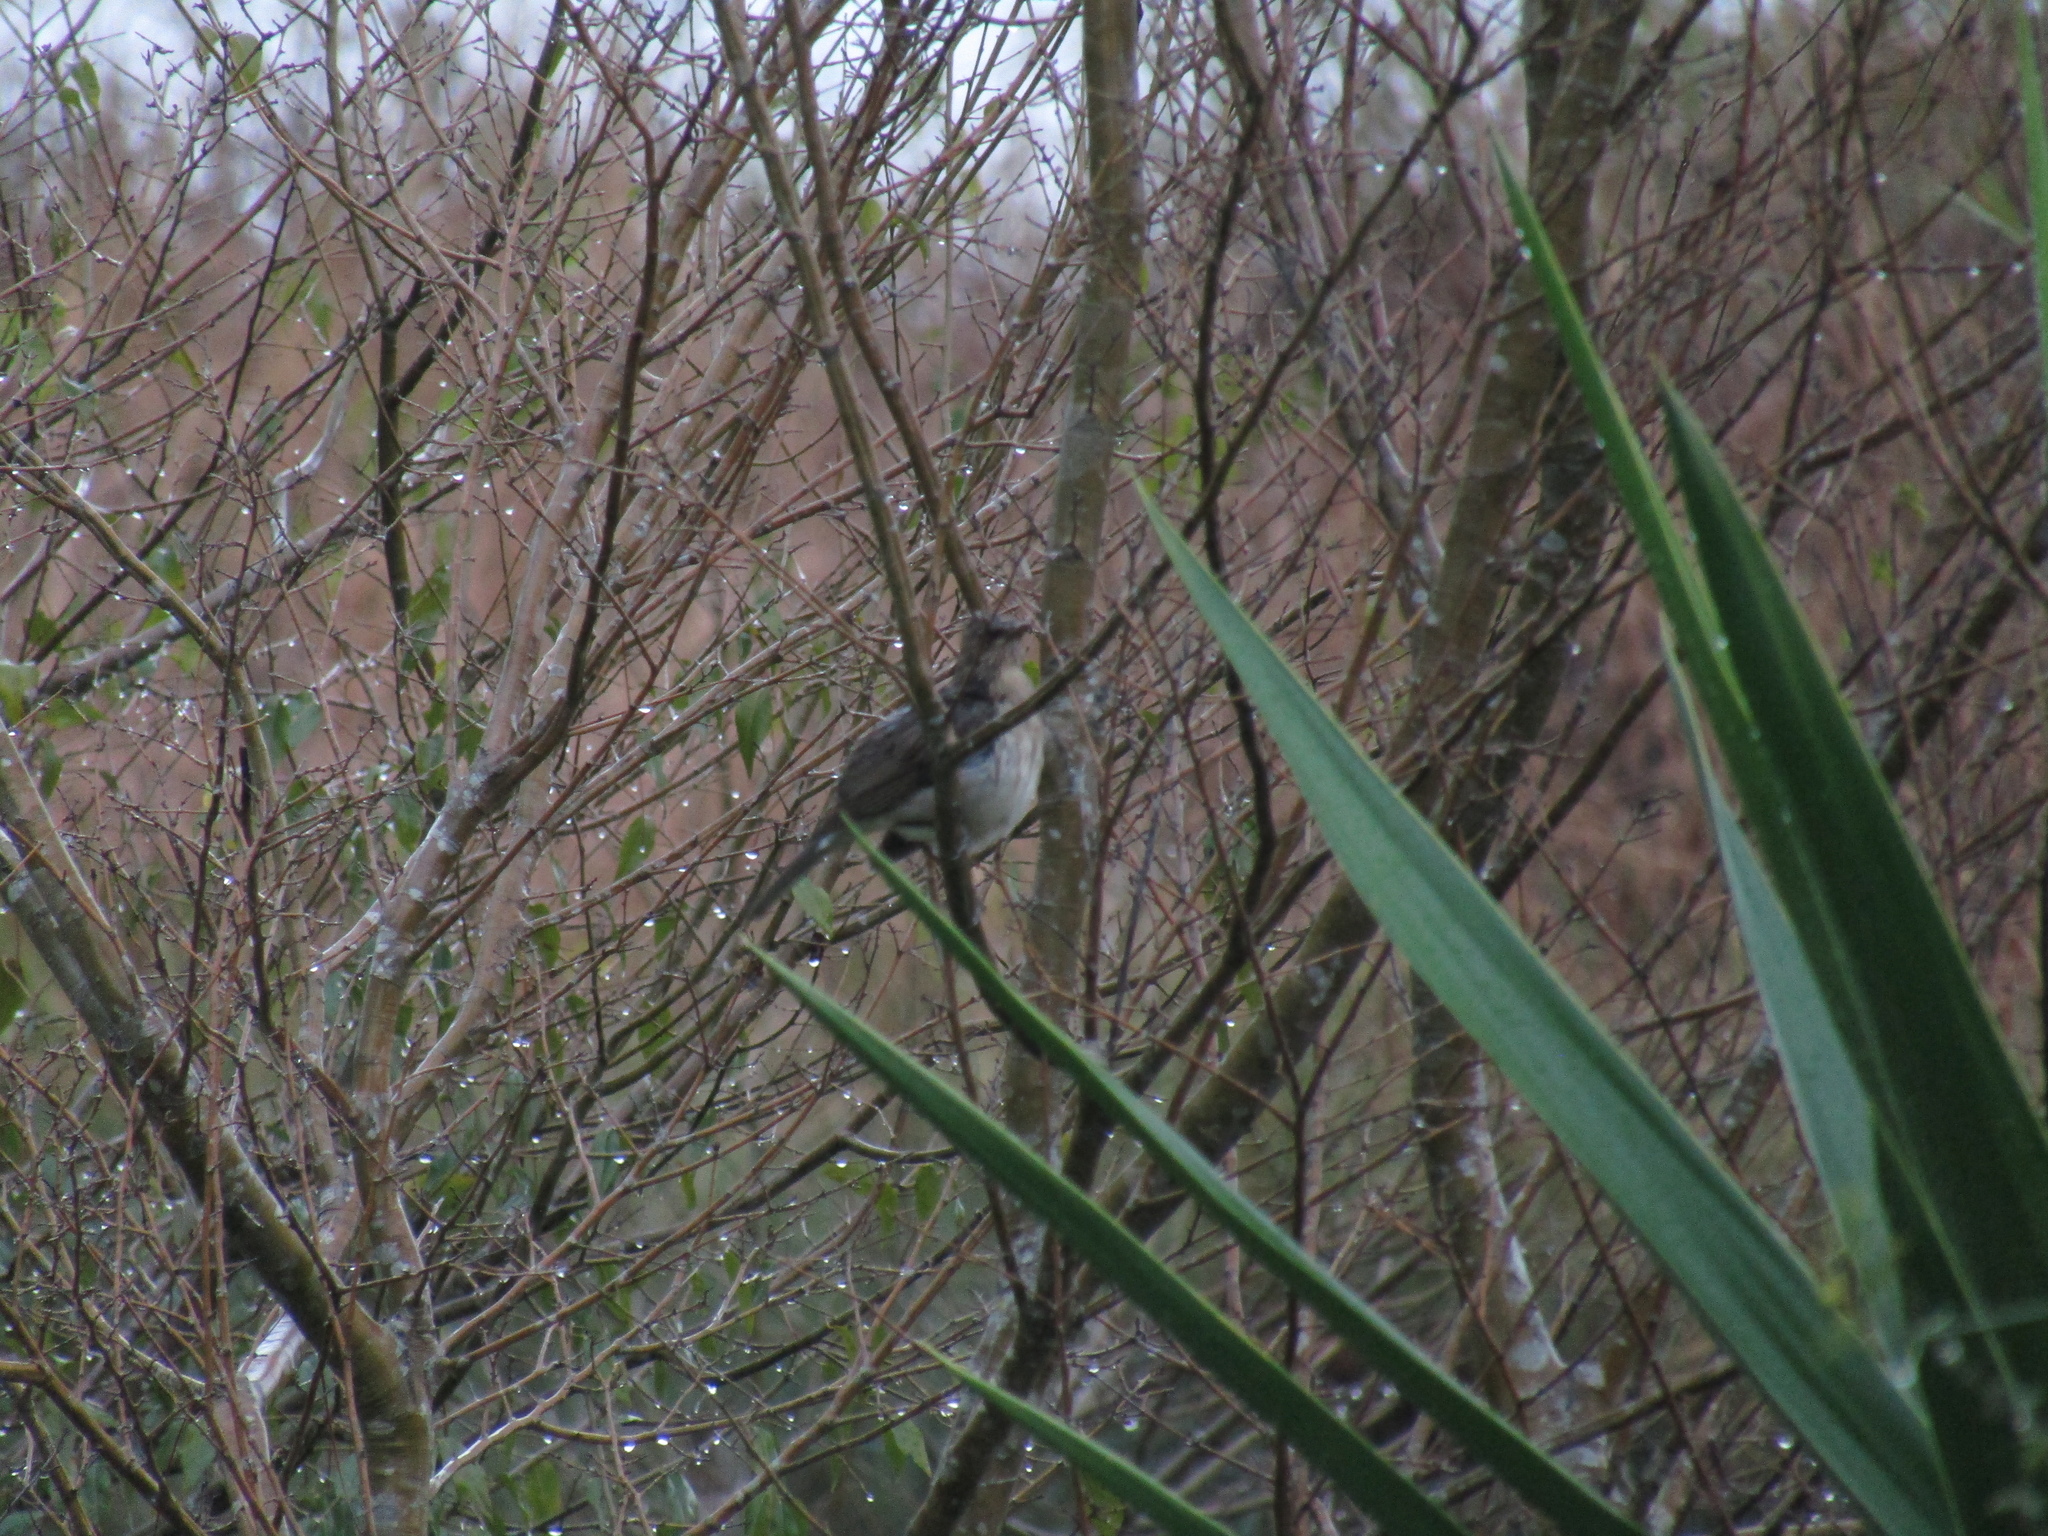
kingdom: Animalia
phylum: Chordata
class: Aves
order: Passeriformes
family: Turdidae
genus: Turdus
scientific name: Turdus amaurochalinus
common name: Creamy-bellied thrush
